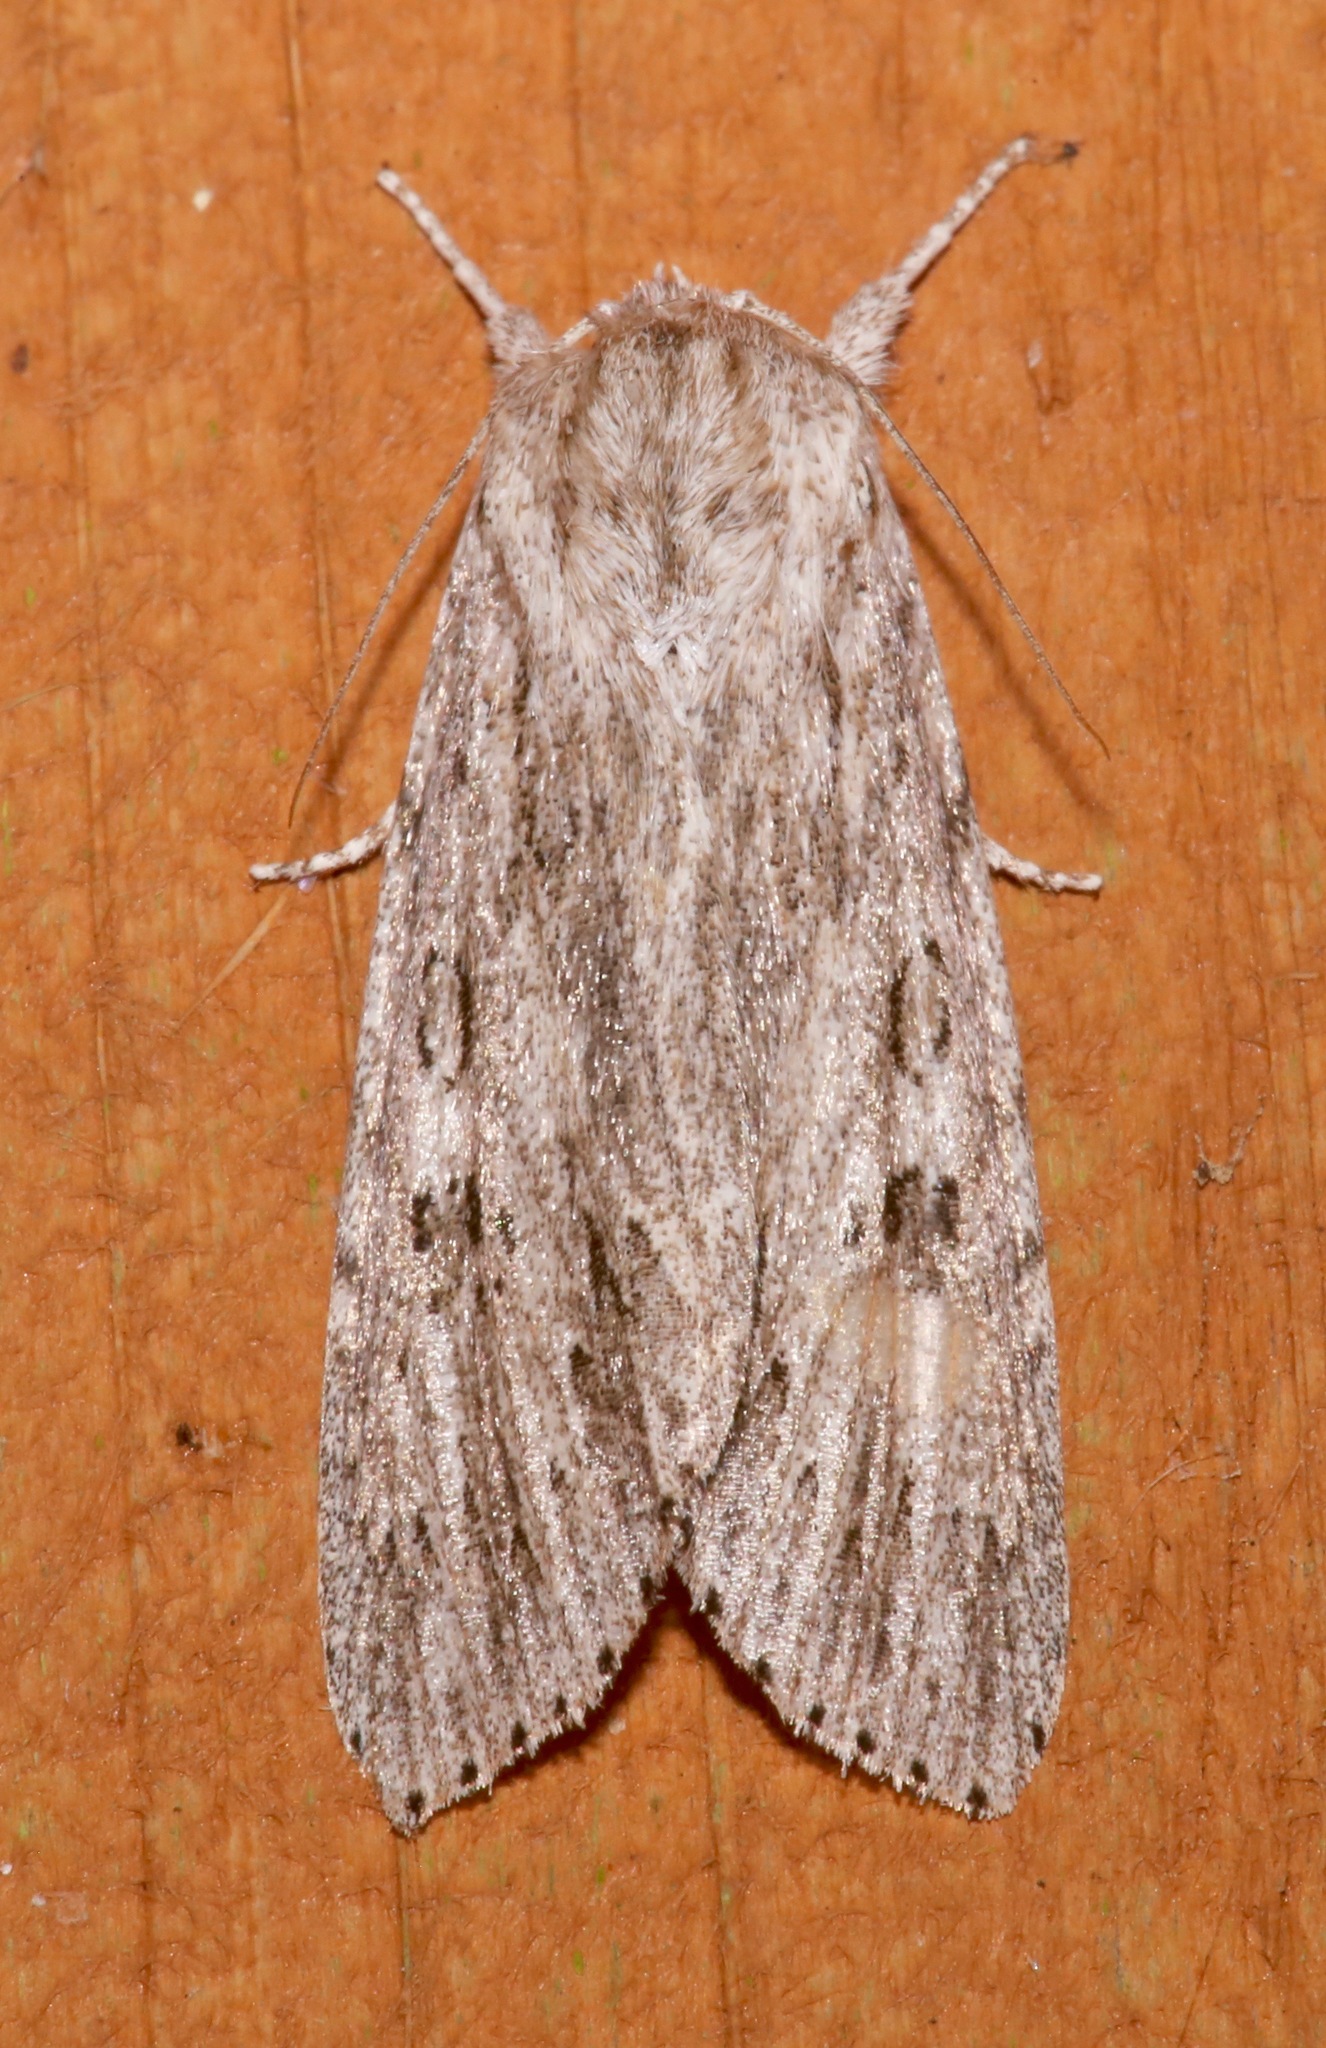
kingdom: Animalia
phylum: Arthropoda
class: Insecta
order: Lepidoptera
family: Noctuidae
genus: Acronicta
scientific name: Acronicta oblinita
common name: Smeared dagger
